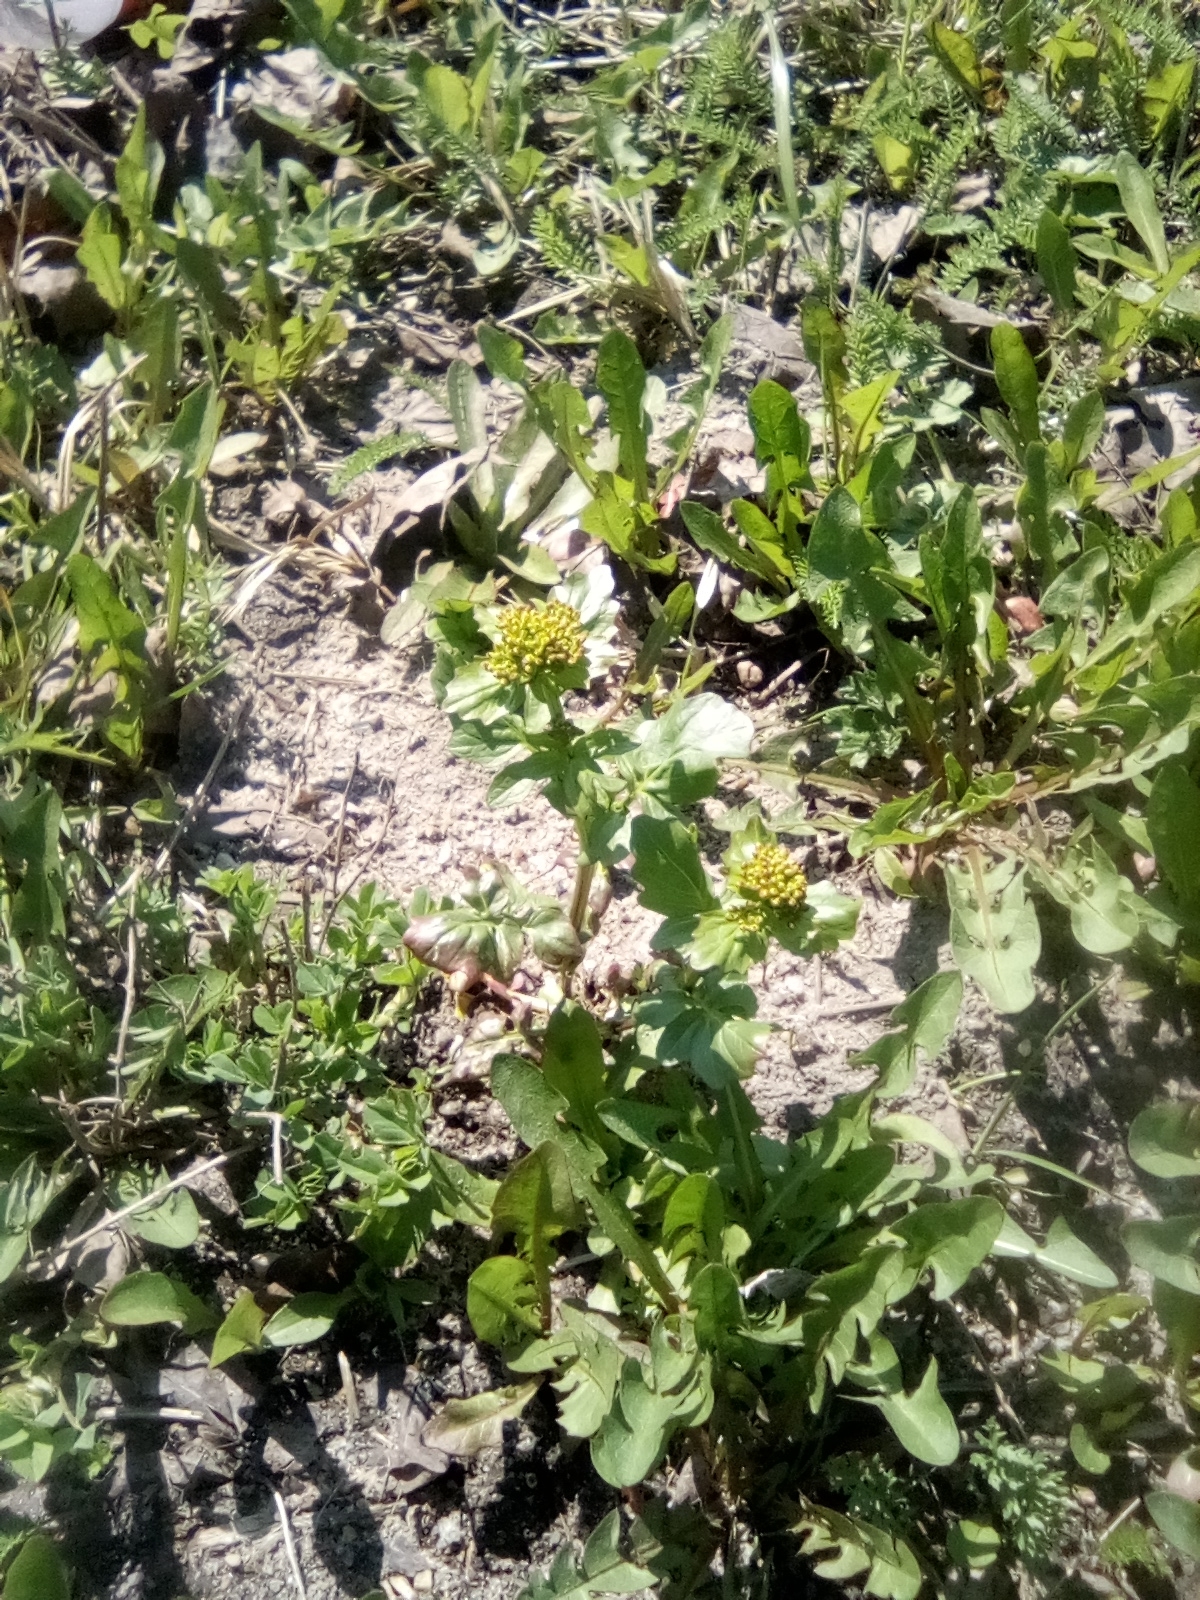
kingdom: Plantae
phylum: Tracheophyta
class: Magnoliopsida
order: Brassicales
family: Brassicaceae
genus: Barbarea
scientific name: Barbarea vulgaris
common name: Cressy-greens
